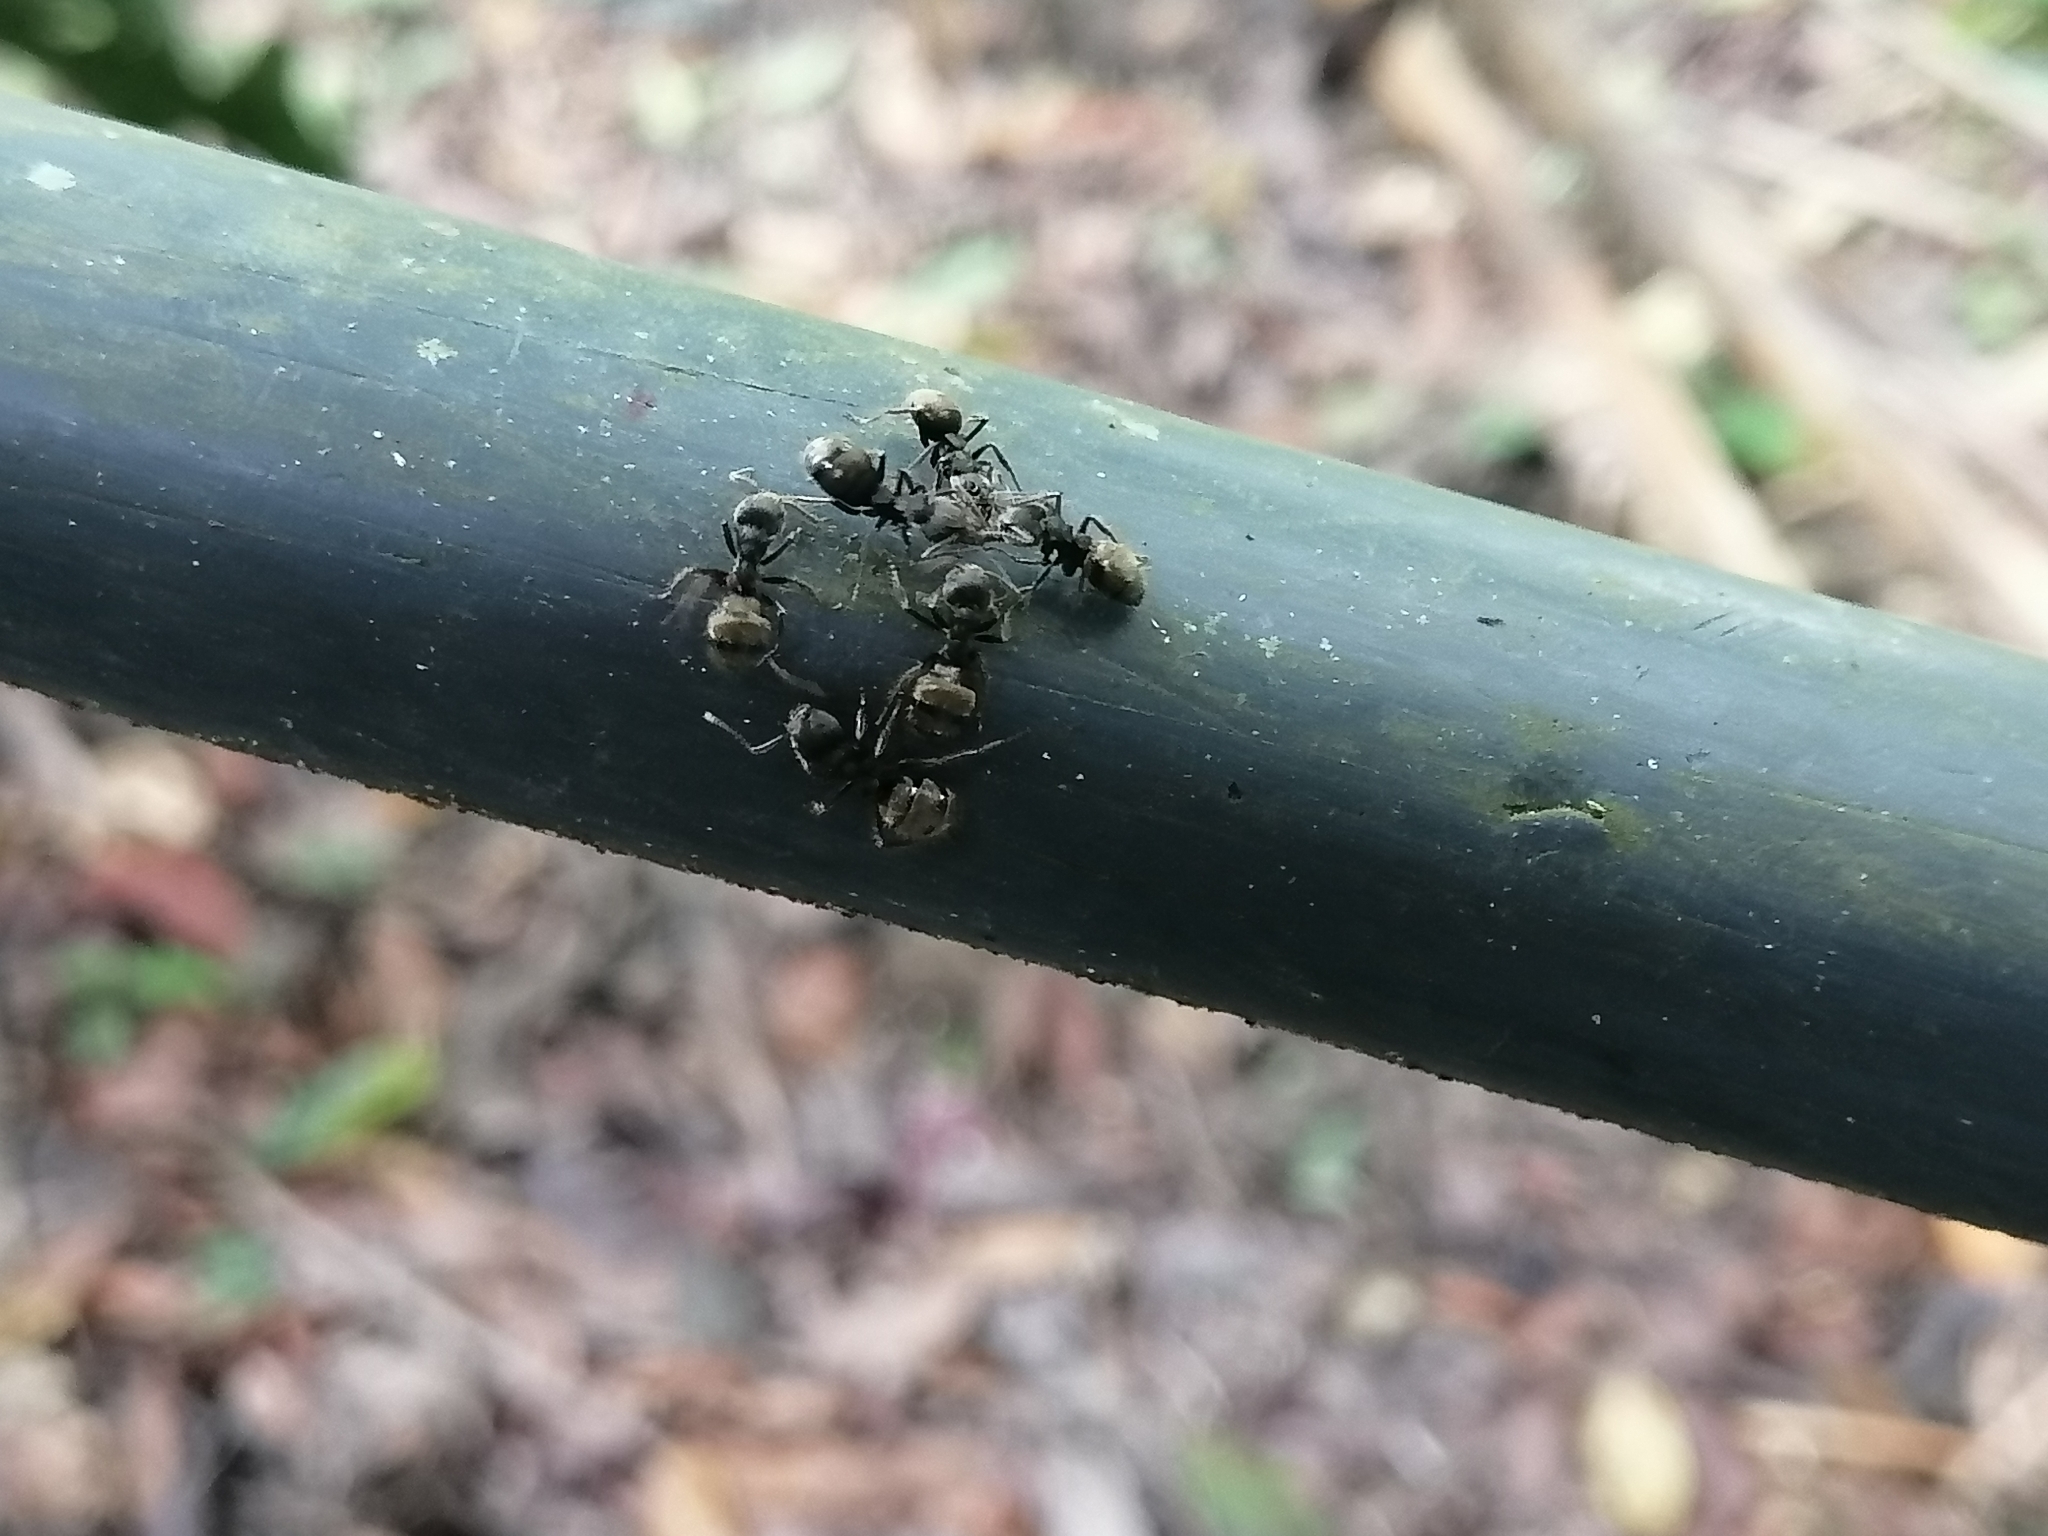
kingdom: Animalia
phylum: Arthropoda
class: Insecta
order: Hymenoptera
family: Formicidae
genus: Dolichoderus
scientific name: Dolichoderus bispinosus
